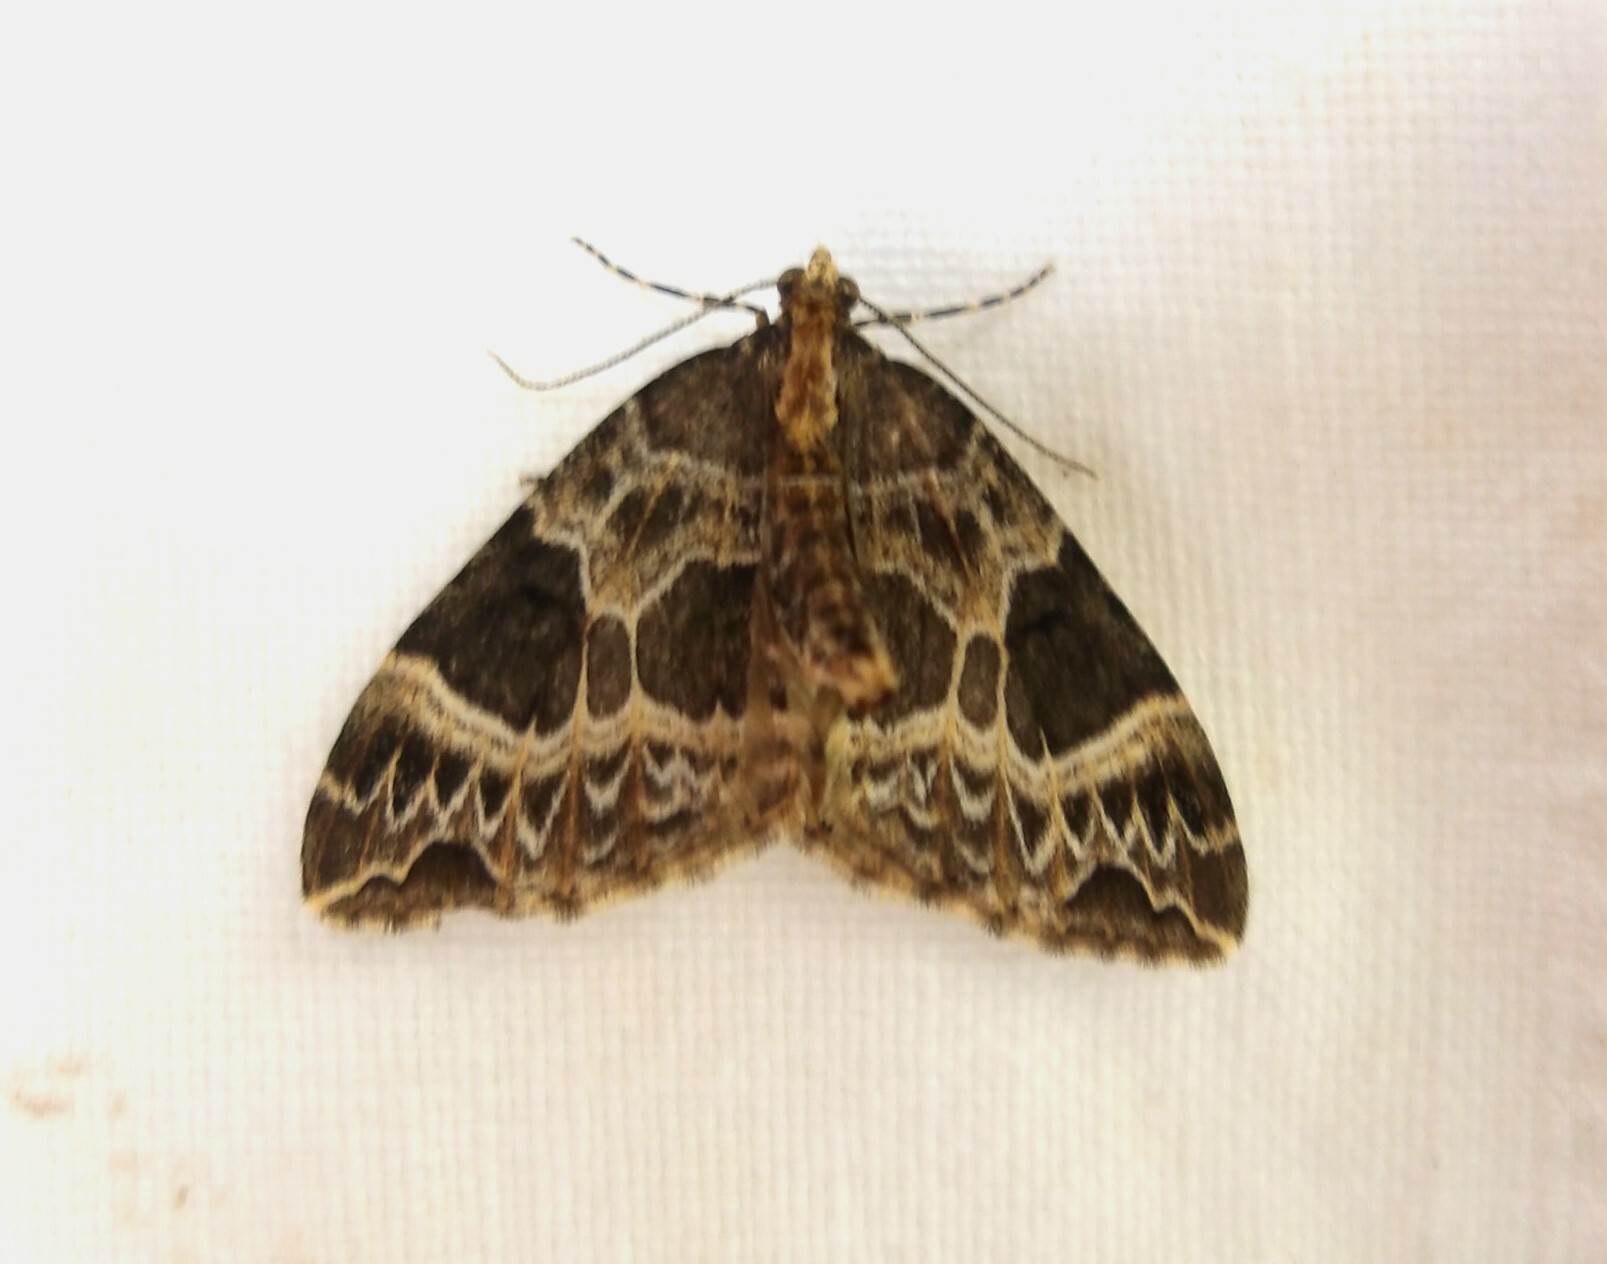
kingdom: Animalia
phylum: Arthropoda
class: Insecta
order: Lepidoptera
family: Geometridae
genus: Ecliptopera
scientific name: Ecliptopera silaceata
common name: Small phoenix
